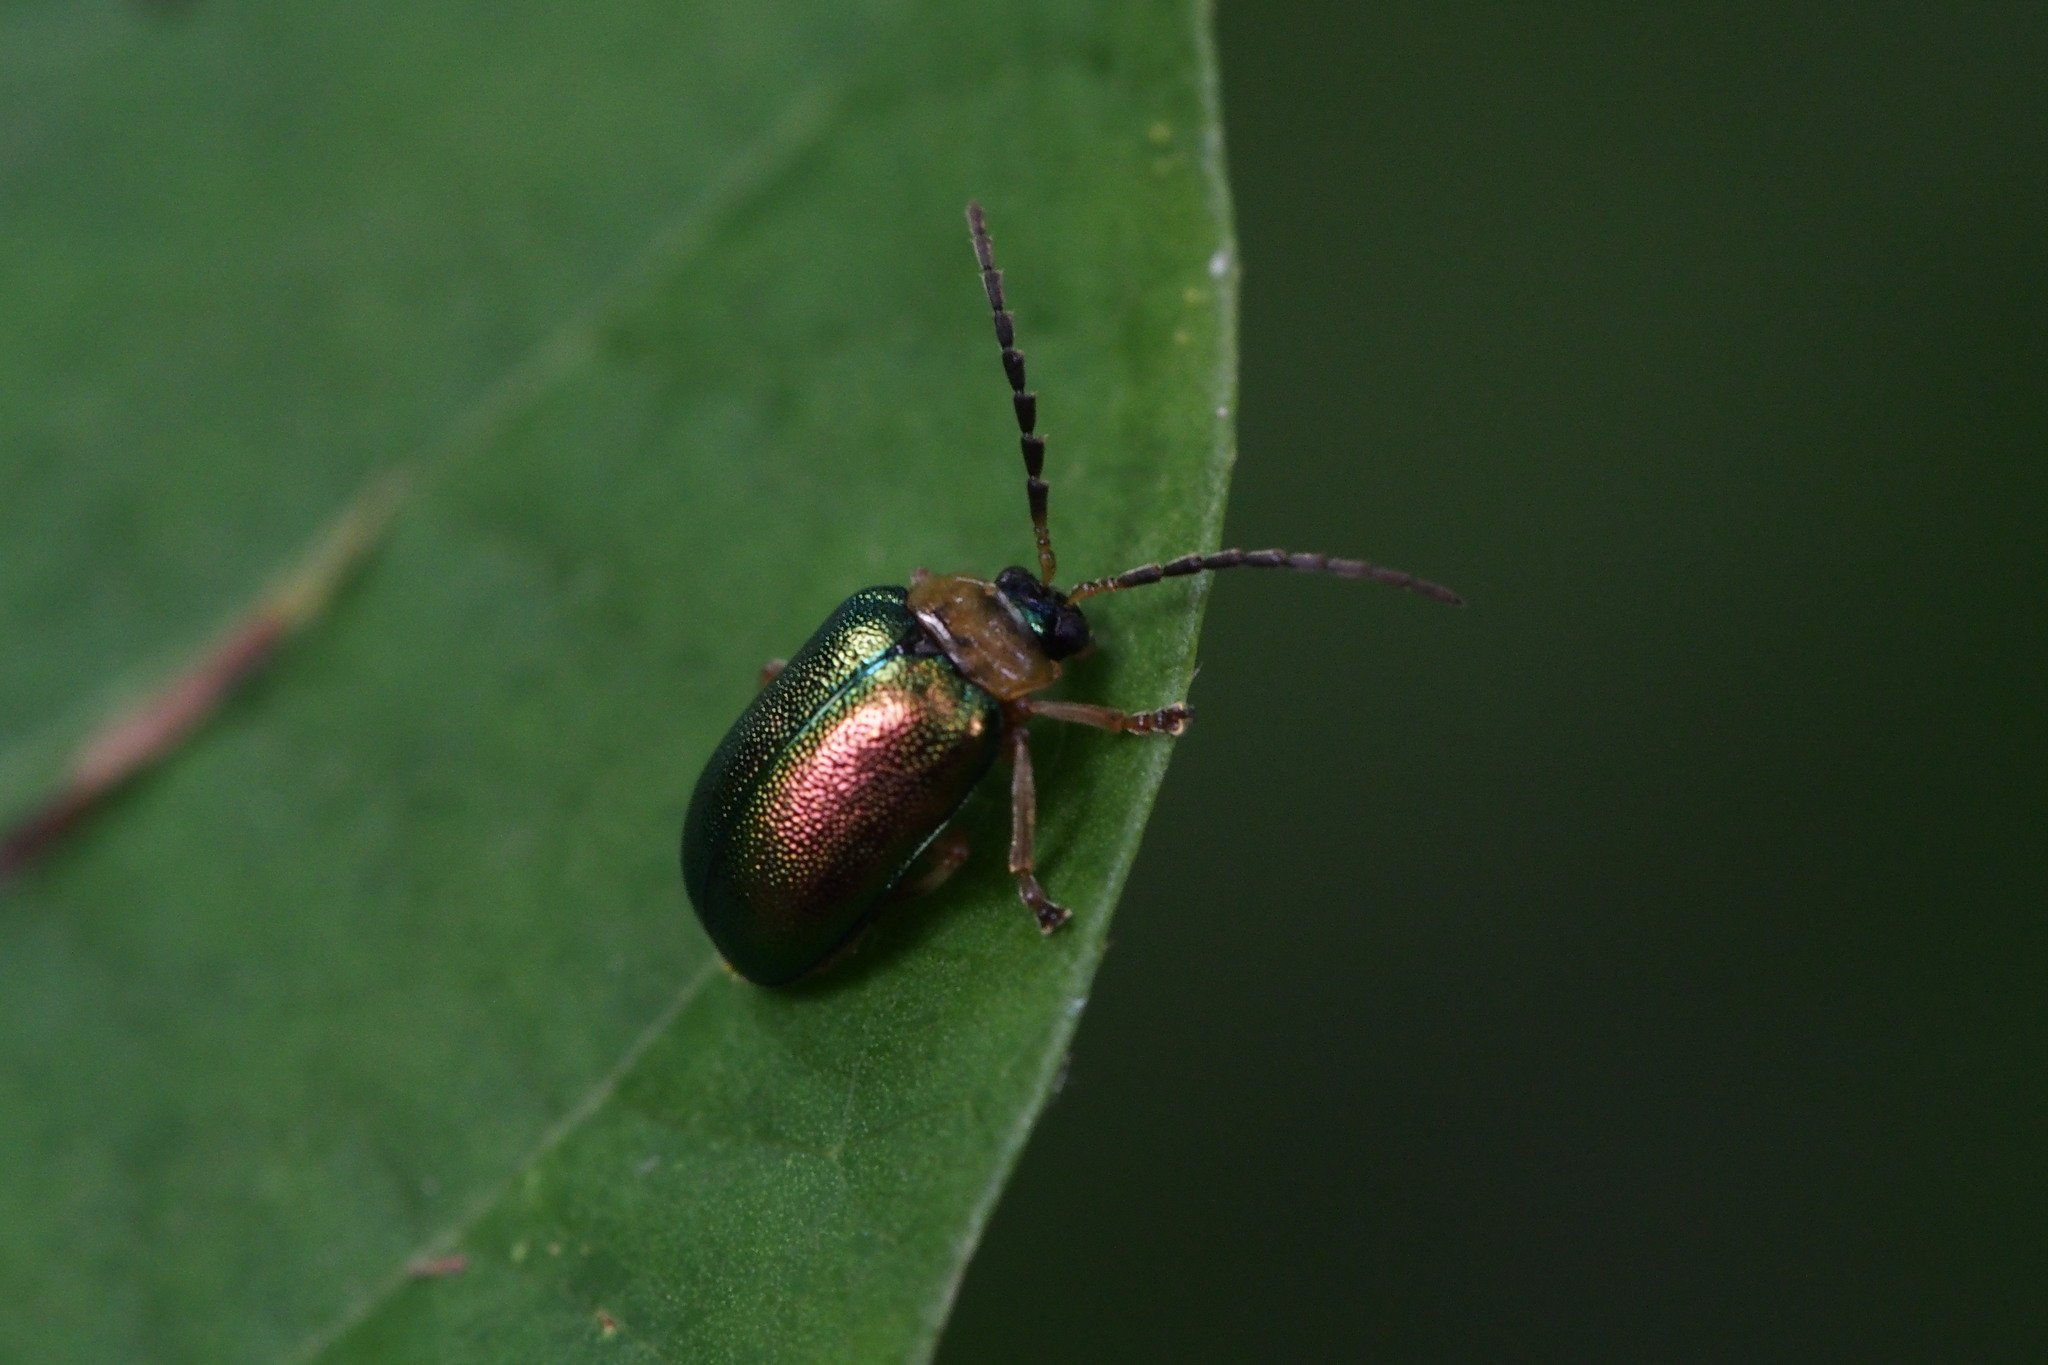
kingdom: Animalia
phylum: Arthropoda
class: Insecta
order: Coleoptera
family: Chrysomelidae
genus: Agelasa
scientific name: Agelasa nigriceps
